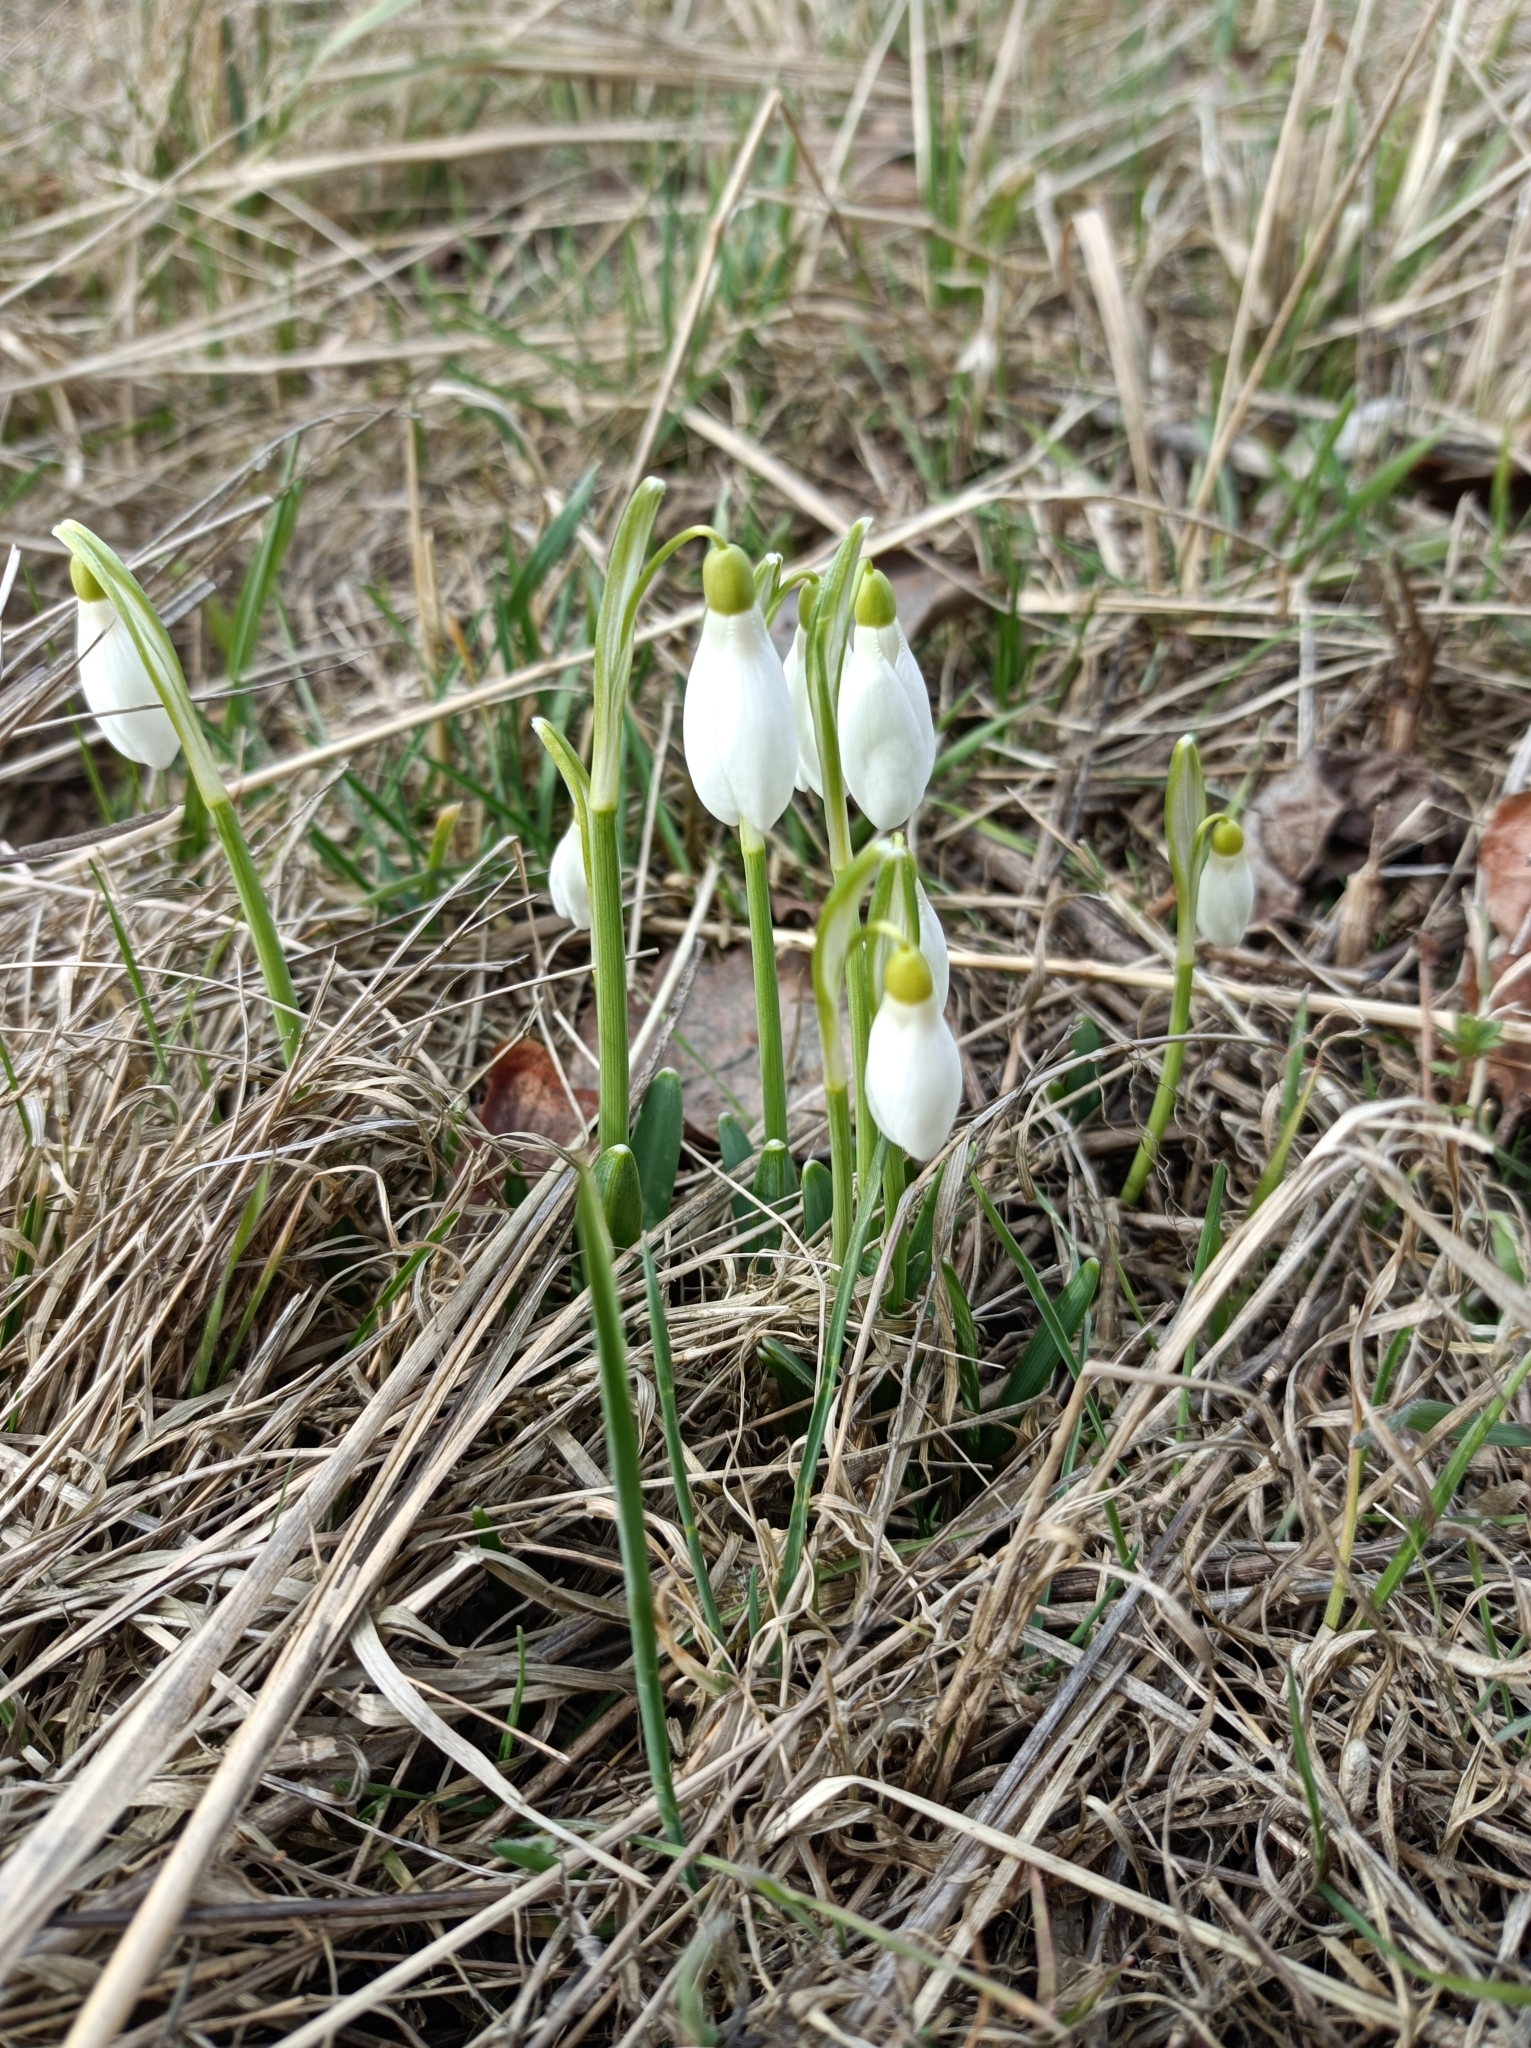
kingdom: Plantae
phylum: Tracheophyta
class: Liliopsida
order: Asparagales
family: Amaryllidaceae
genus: Galanthus
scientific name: Galanthus nivalis
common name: Snowdrop
